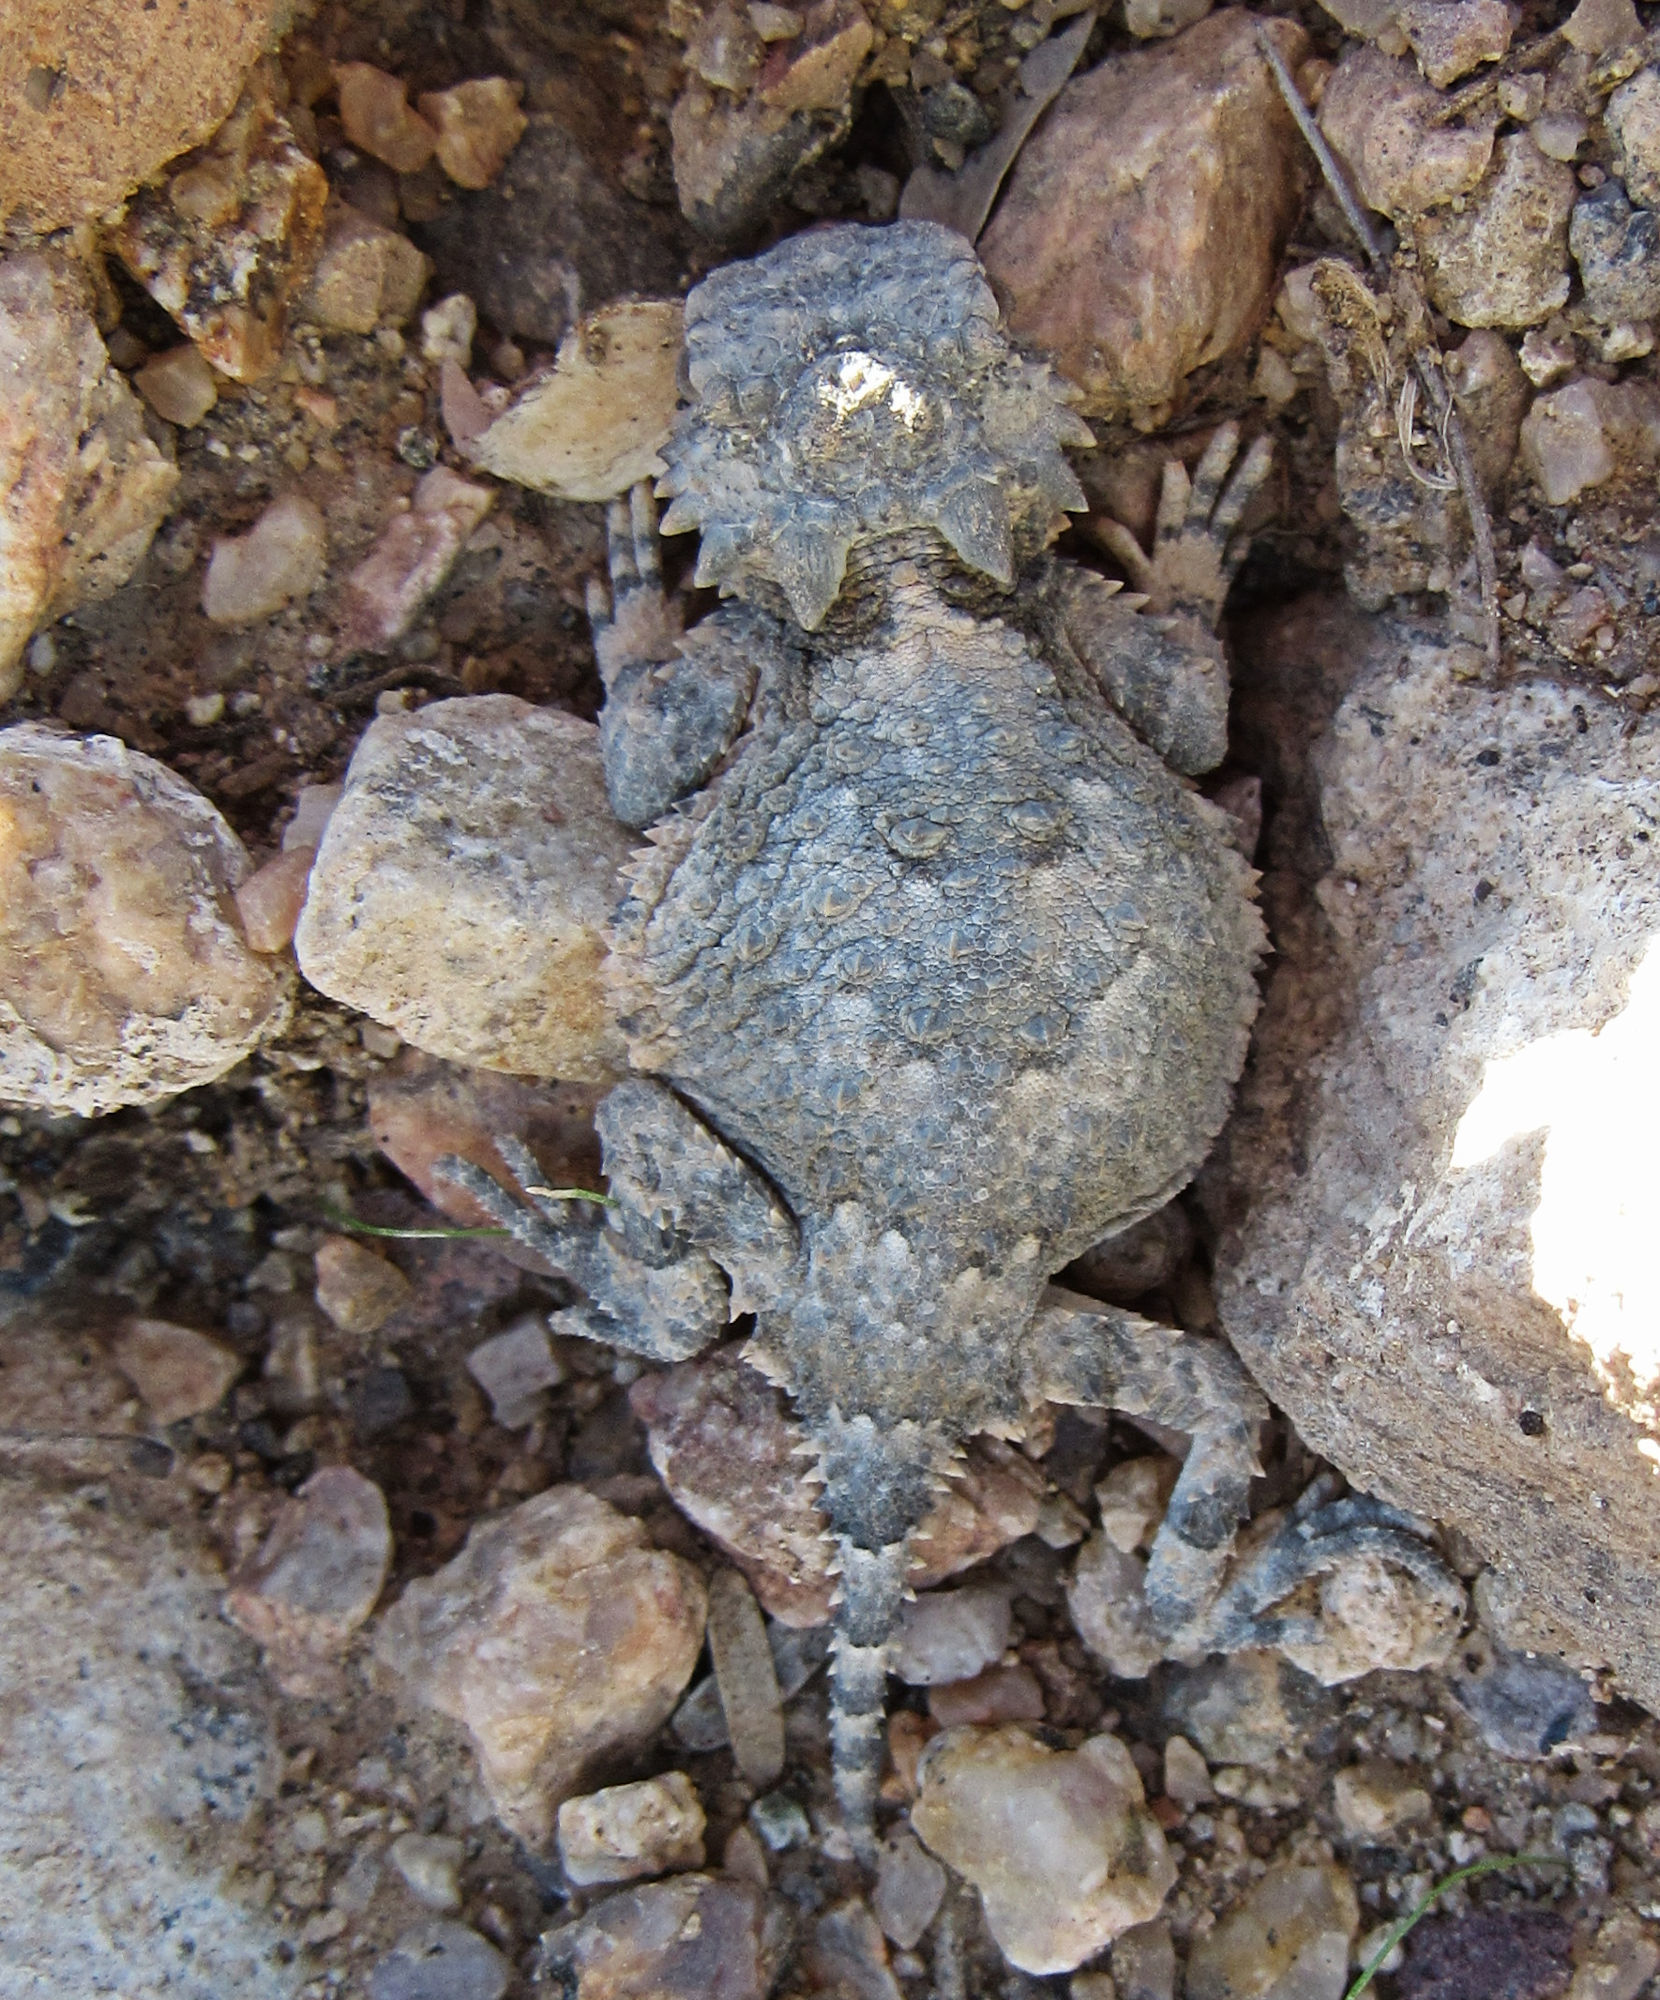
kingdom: Animalia
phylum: Chordata
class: Squamata
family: Phrynosomatidae
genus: Phrynosoma
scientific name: Phrynosoma platyrhinos
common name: Desert horned lizard
